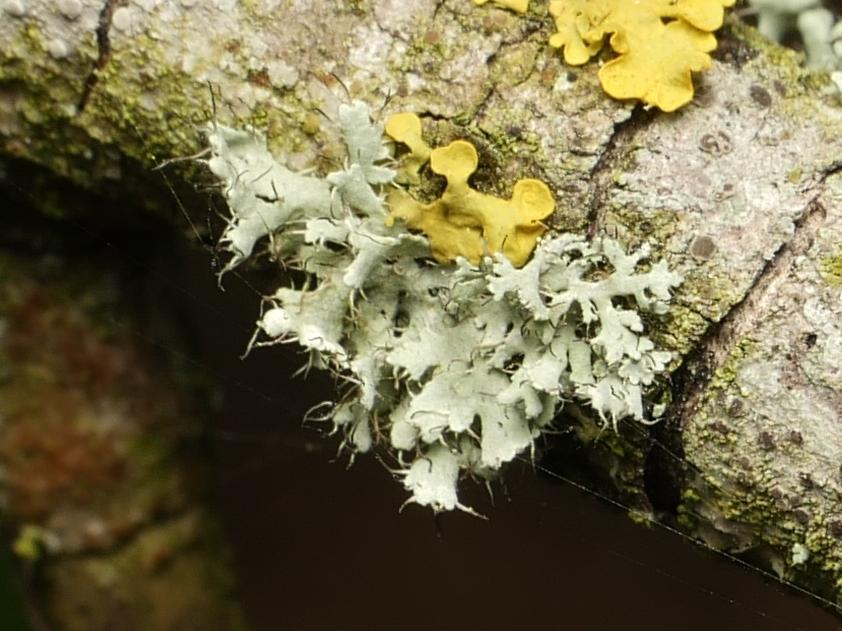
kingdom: Fungi
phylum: Ascomycota
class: Lecanoromycetes
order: Caliciales
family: Physciaceae
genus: Physcia
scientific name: Physcia adscendens
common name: Hooded rosette lichen
